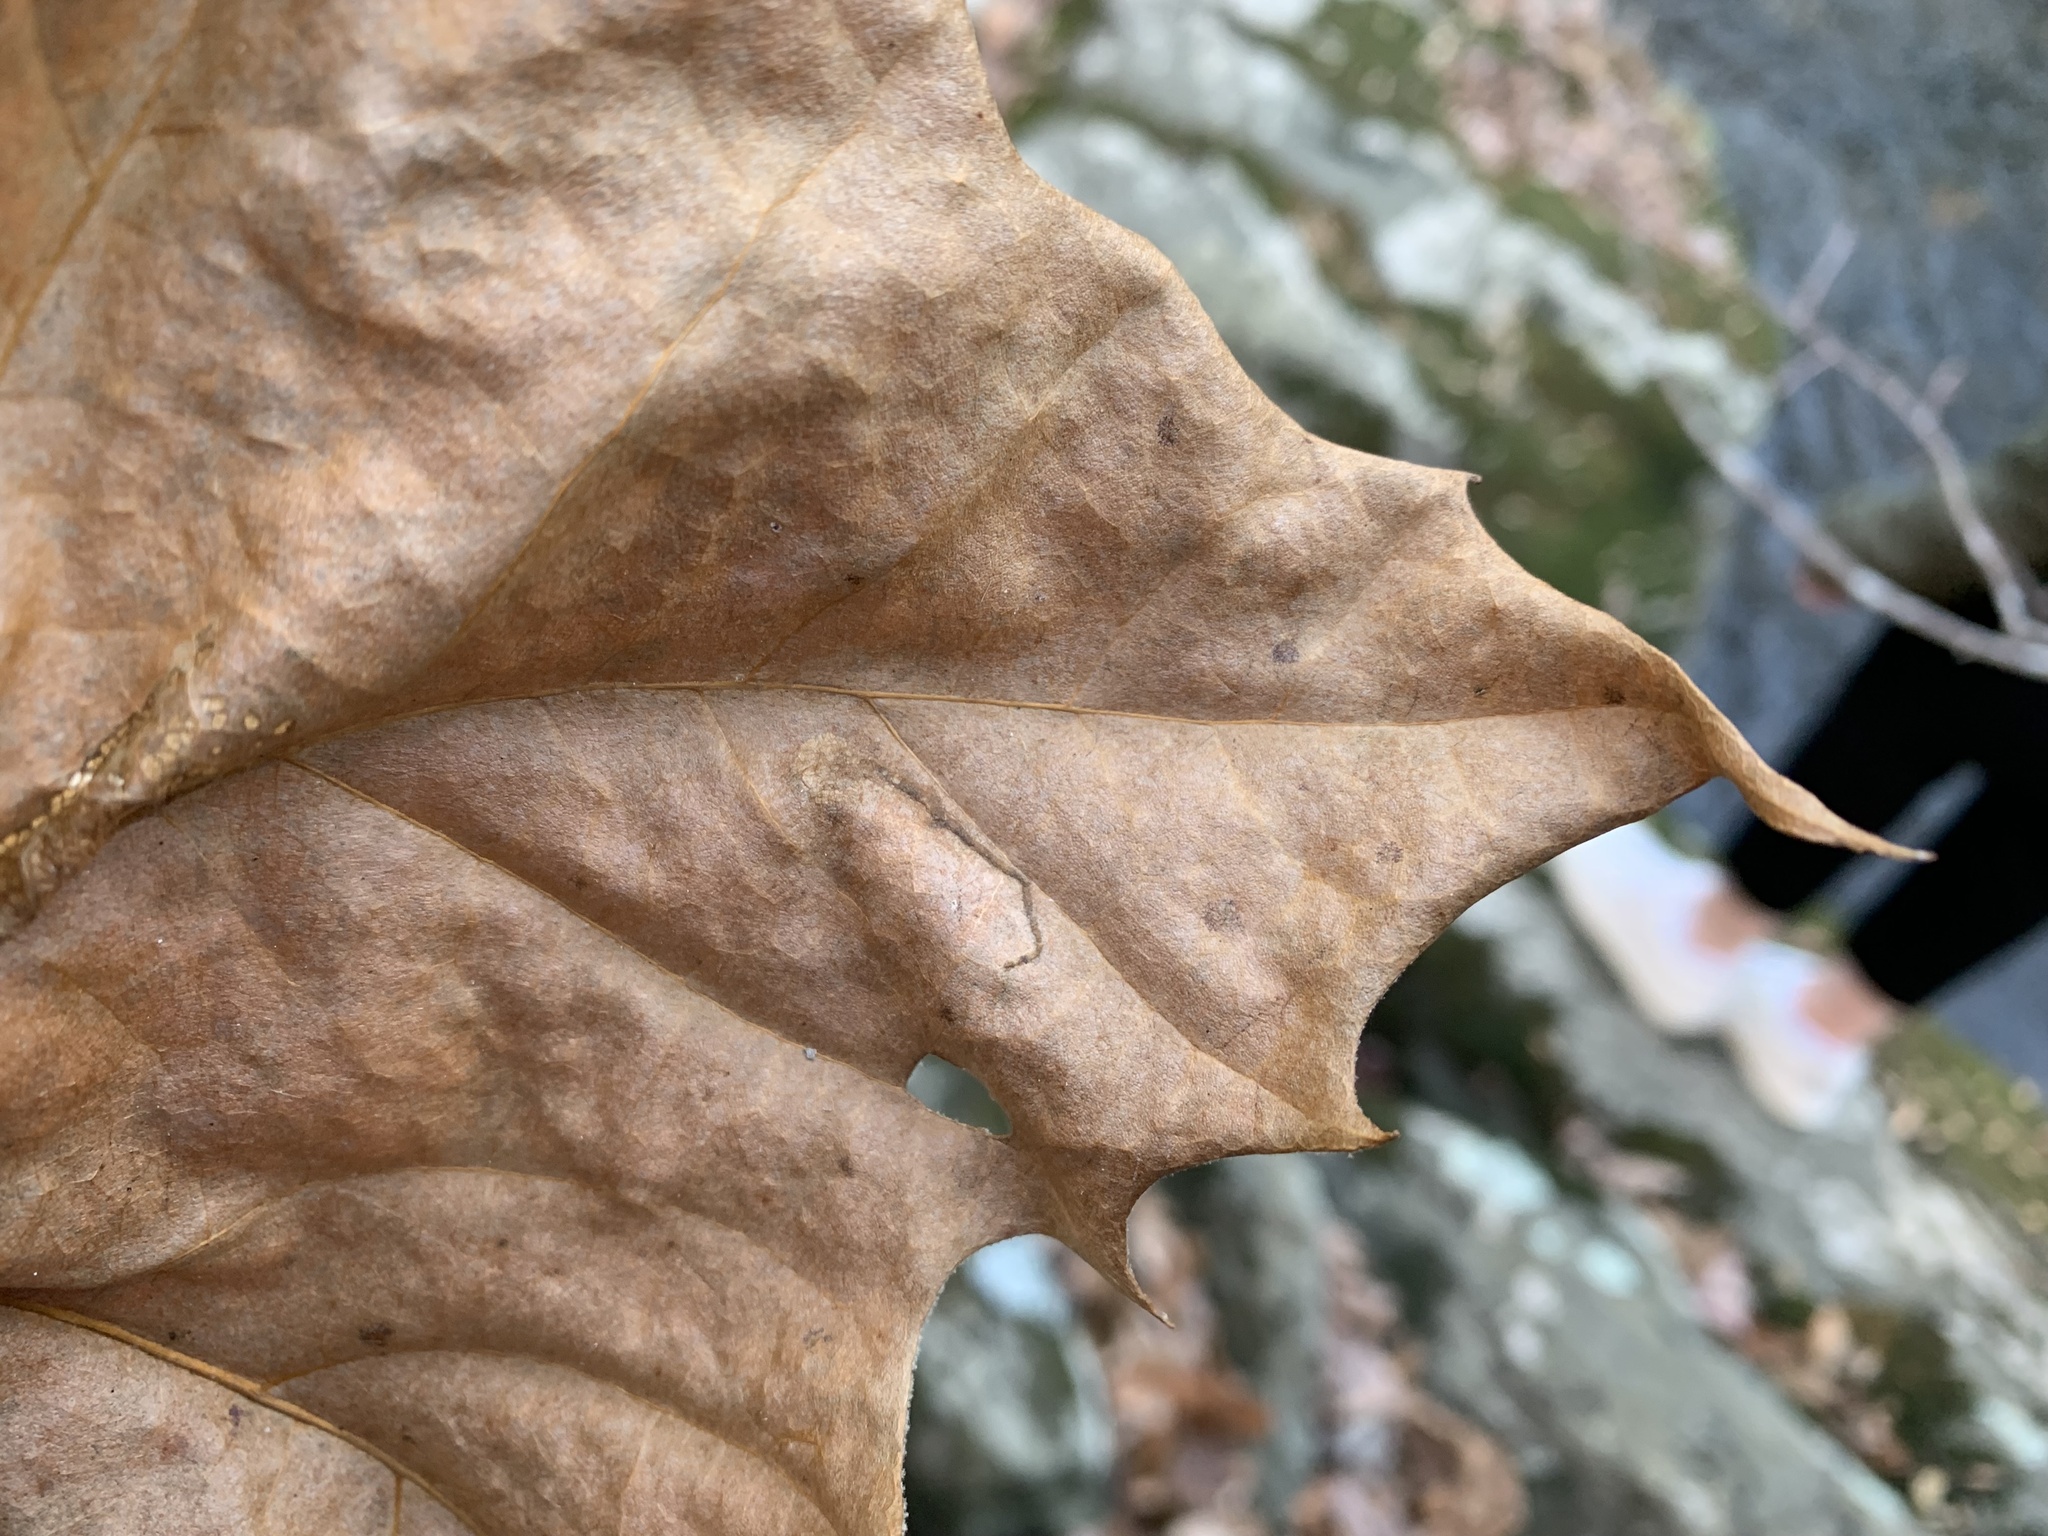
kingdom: Animalia
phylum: Arthropoda
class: Insecta
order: Lepidoptera
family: Nepticulidae
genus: Ectoedemia
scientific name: Ectoedemia clemensella
